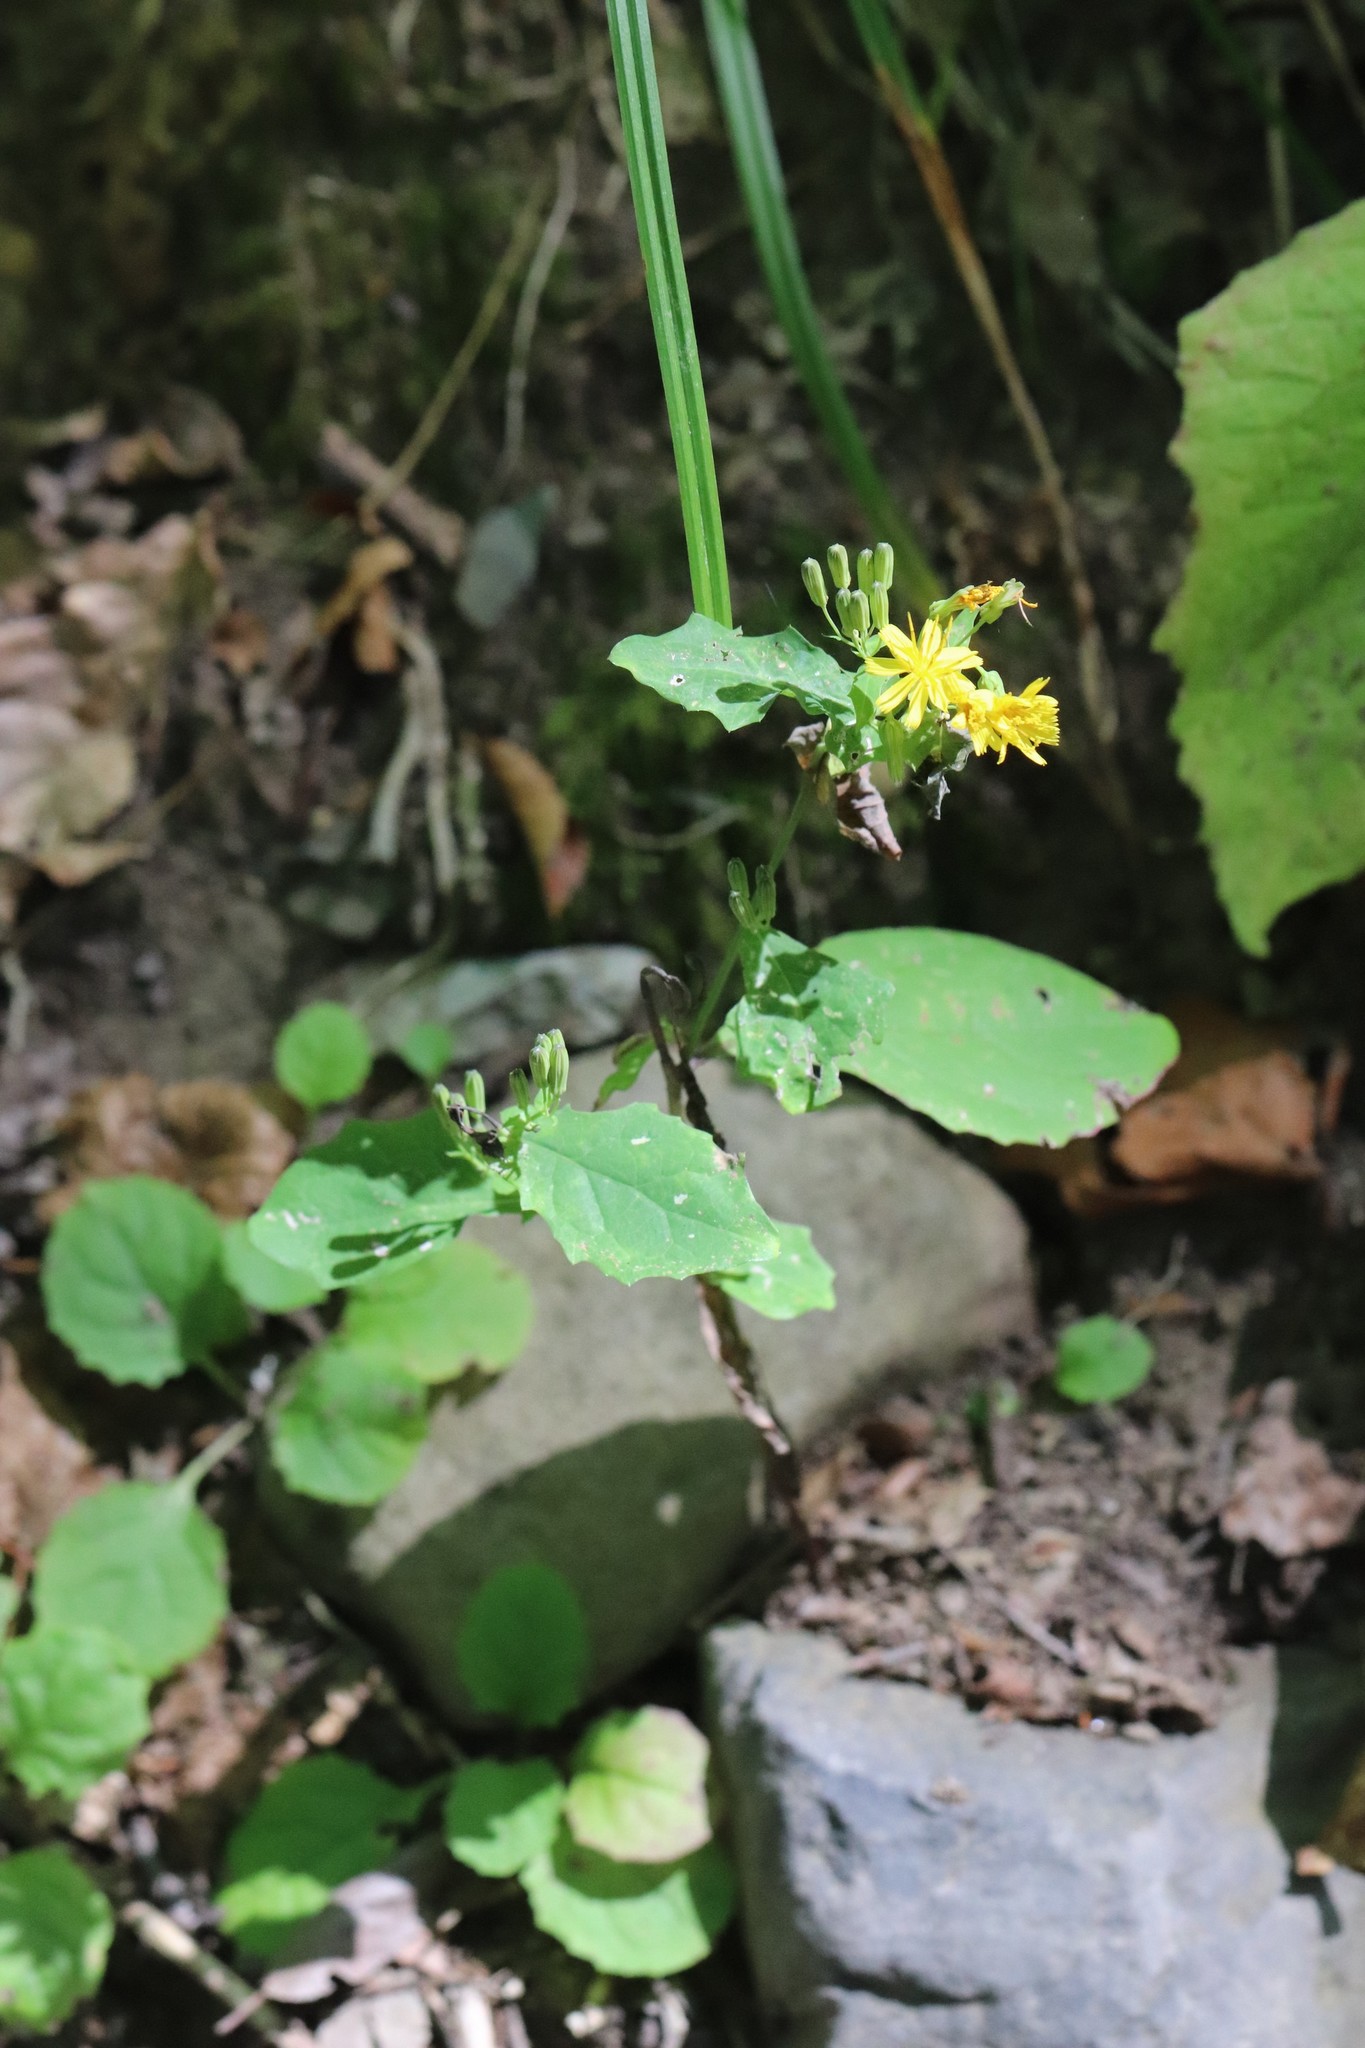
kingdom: Plantae
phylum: Tracheophyta
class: Magnoliopsida
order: Asterales
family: Asteraceae
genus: Crepidiastrum
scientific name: Crepidiastrum denticulatum
